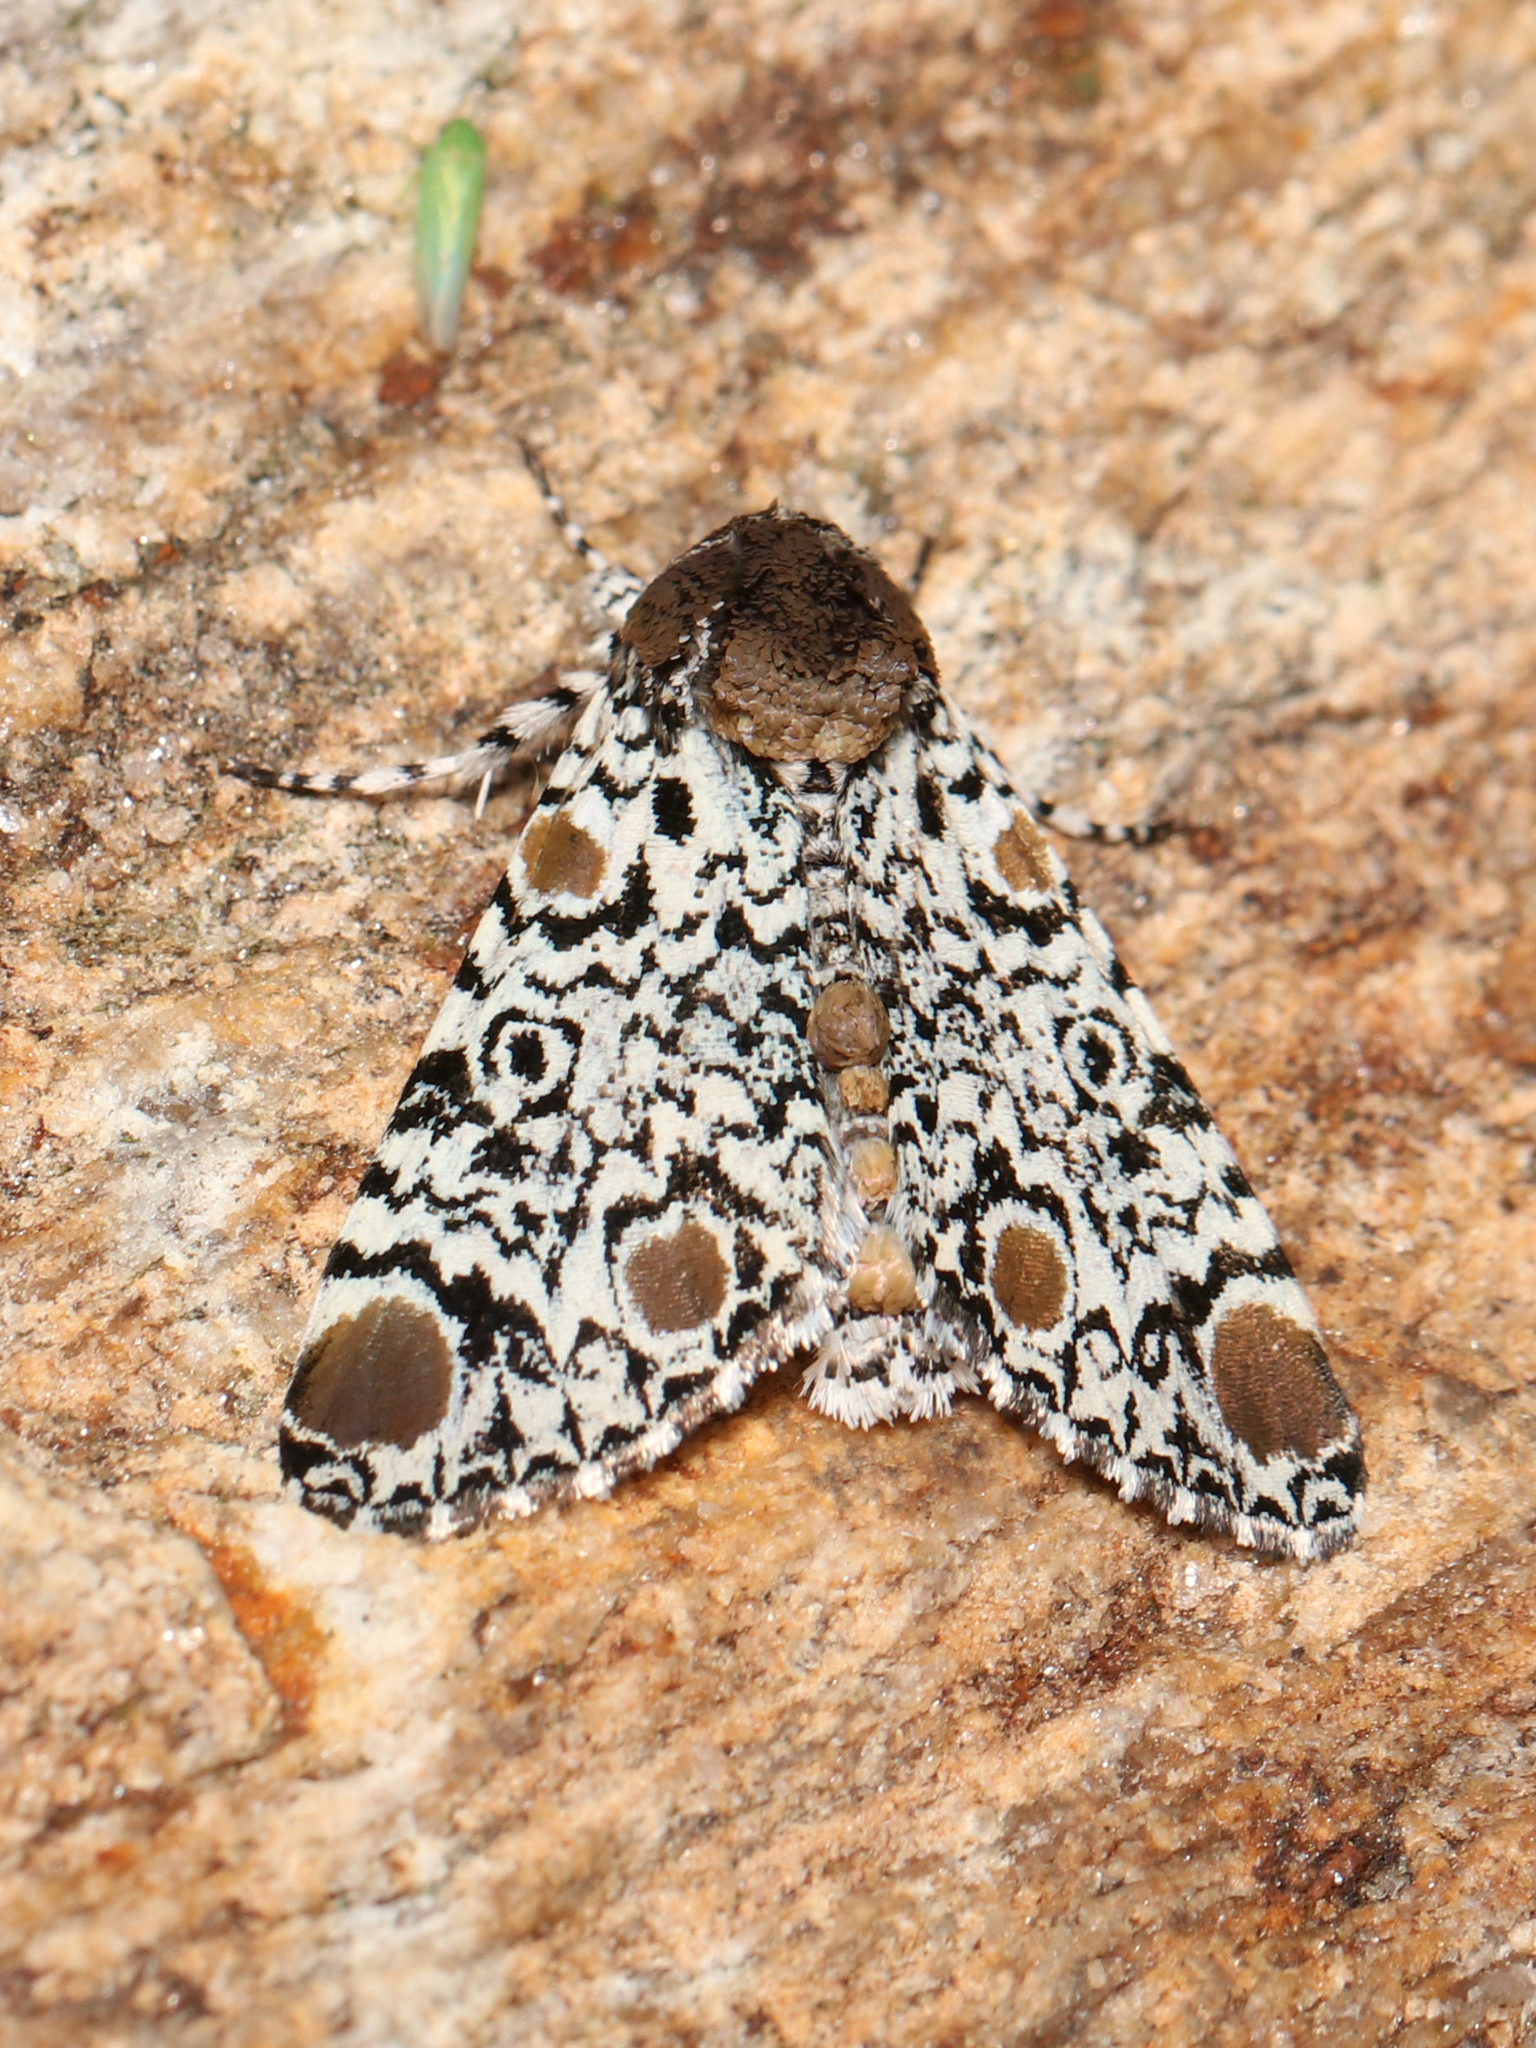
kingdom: Animalia
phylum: Arthropoda
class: Insecta
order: Lepidoptera
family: Noctuidae
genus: Harrisimemna
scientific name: Harrisimemna trisignata
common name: Harris threespot
